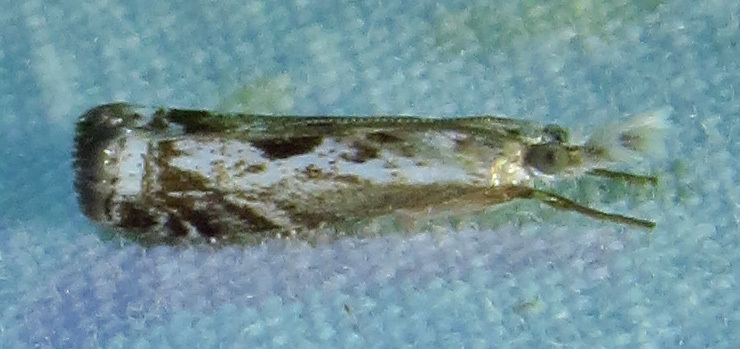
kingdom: Animalia
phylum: Arthropoda
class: Insecta
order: Lepidoptera
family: Crambidae
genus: Microcrambus
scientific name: Microcrambus kimballi
